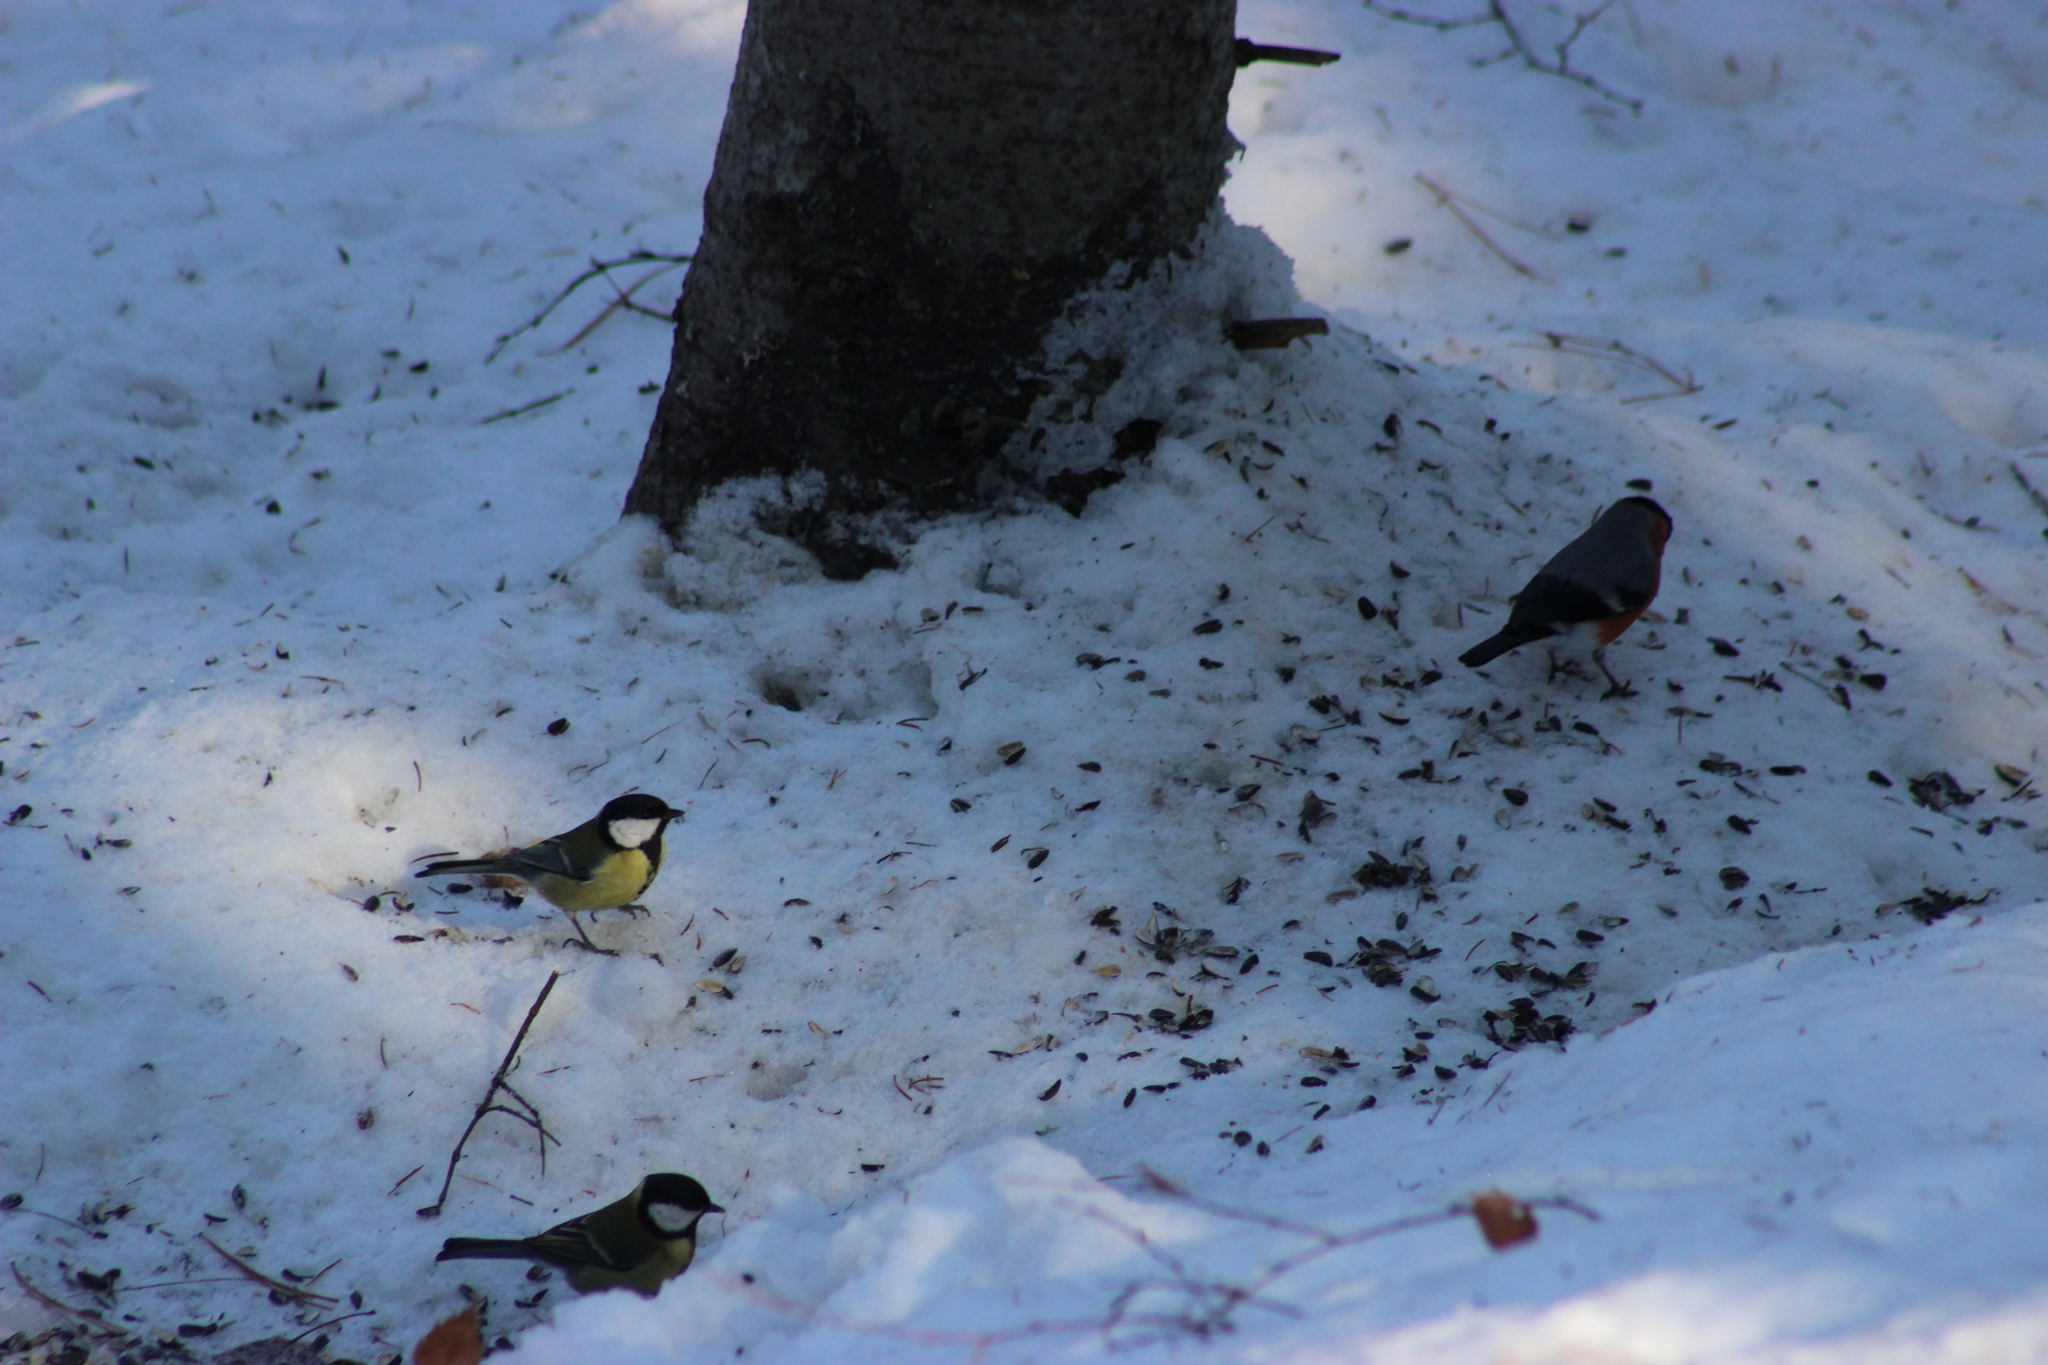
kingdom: Animalia
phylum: Chordata
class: Aves
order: Passeriformes
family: Paridae
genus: Parus
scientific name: Parus major
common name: Great tit
